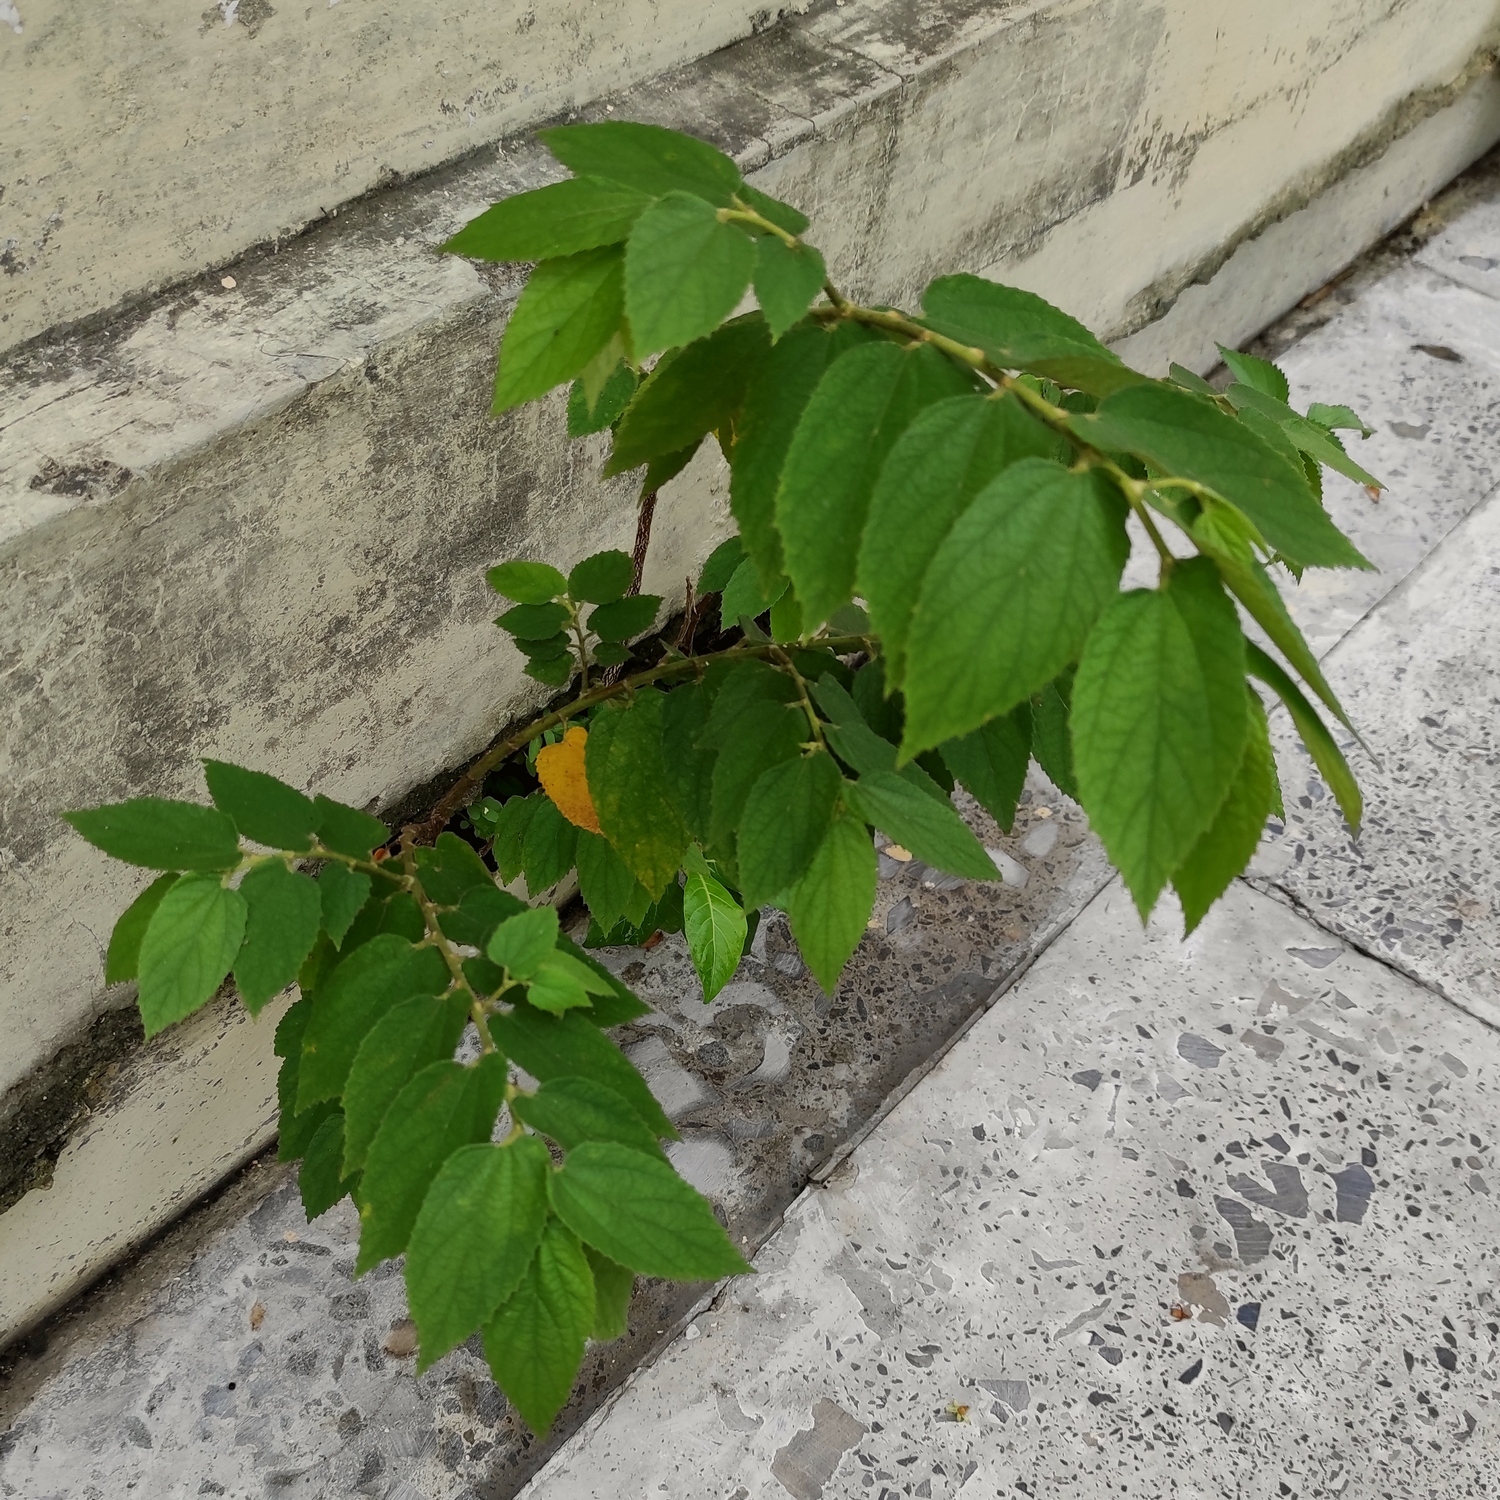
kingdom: Plantae
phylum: Tracheophyta
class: Magnoliopsida
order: Malvales
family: Muntingiaceae
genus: Muntingia
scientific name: Muntingia calabura
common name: Strawberrytree
